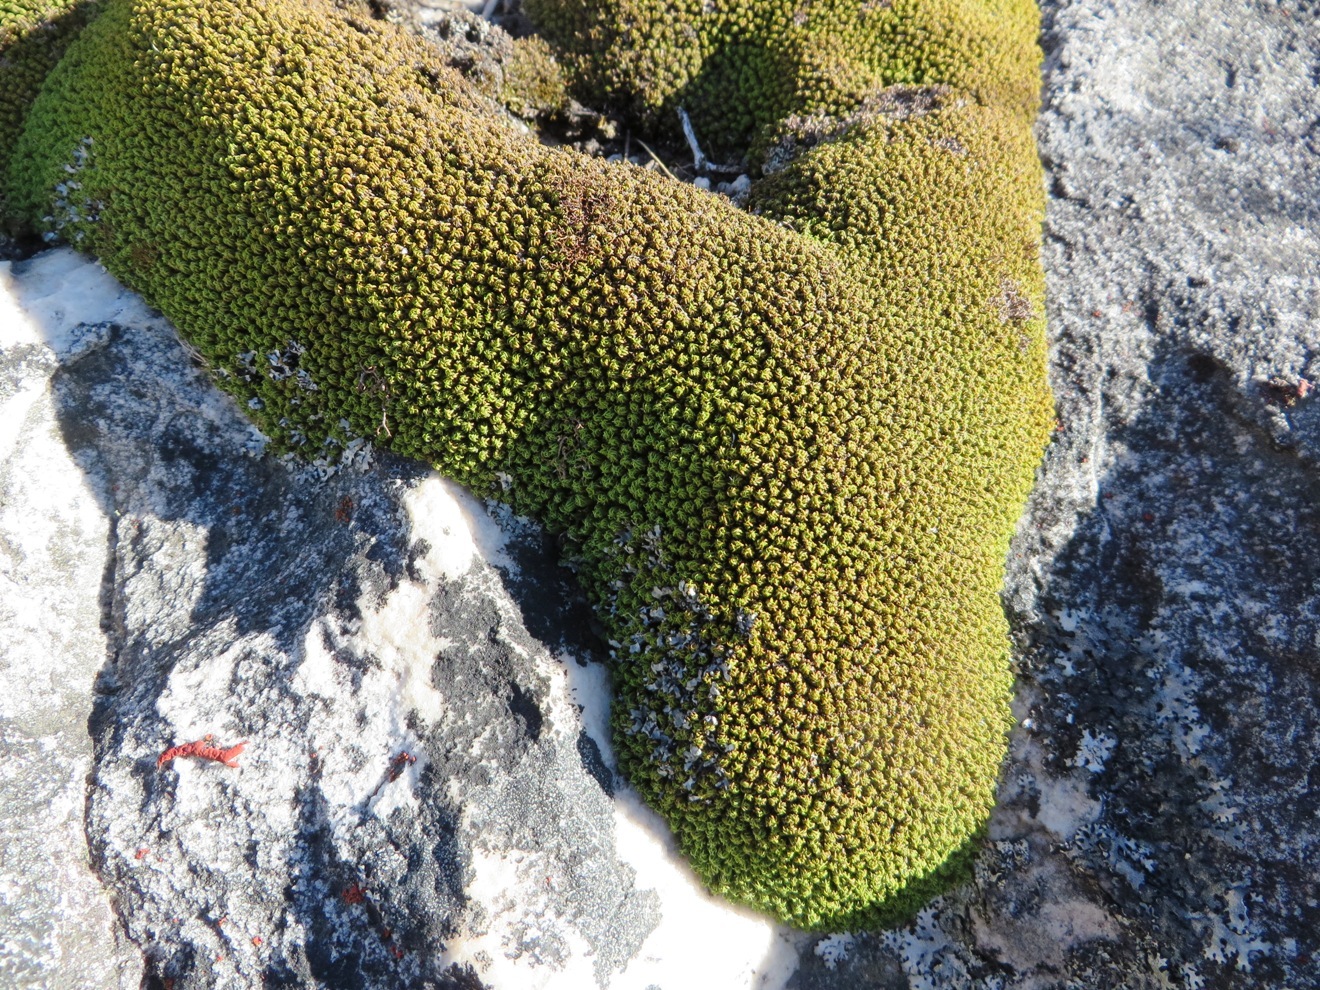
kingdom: Plantae
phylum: Bryophyta
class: Bryopsida
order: Dicranales
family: Hypodontiaceae
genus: Hypodontium
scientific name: Hypodontium pomiforme
